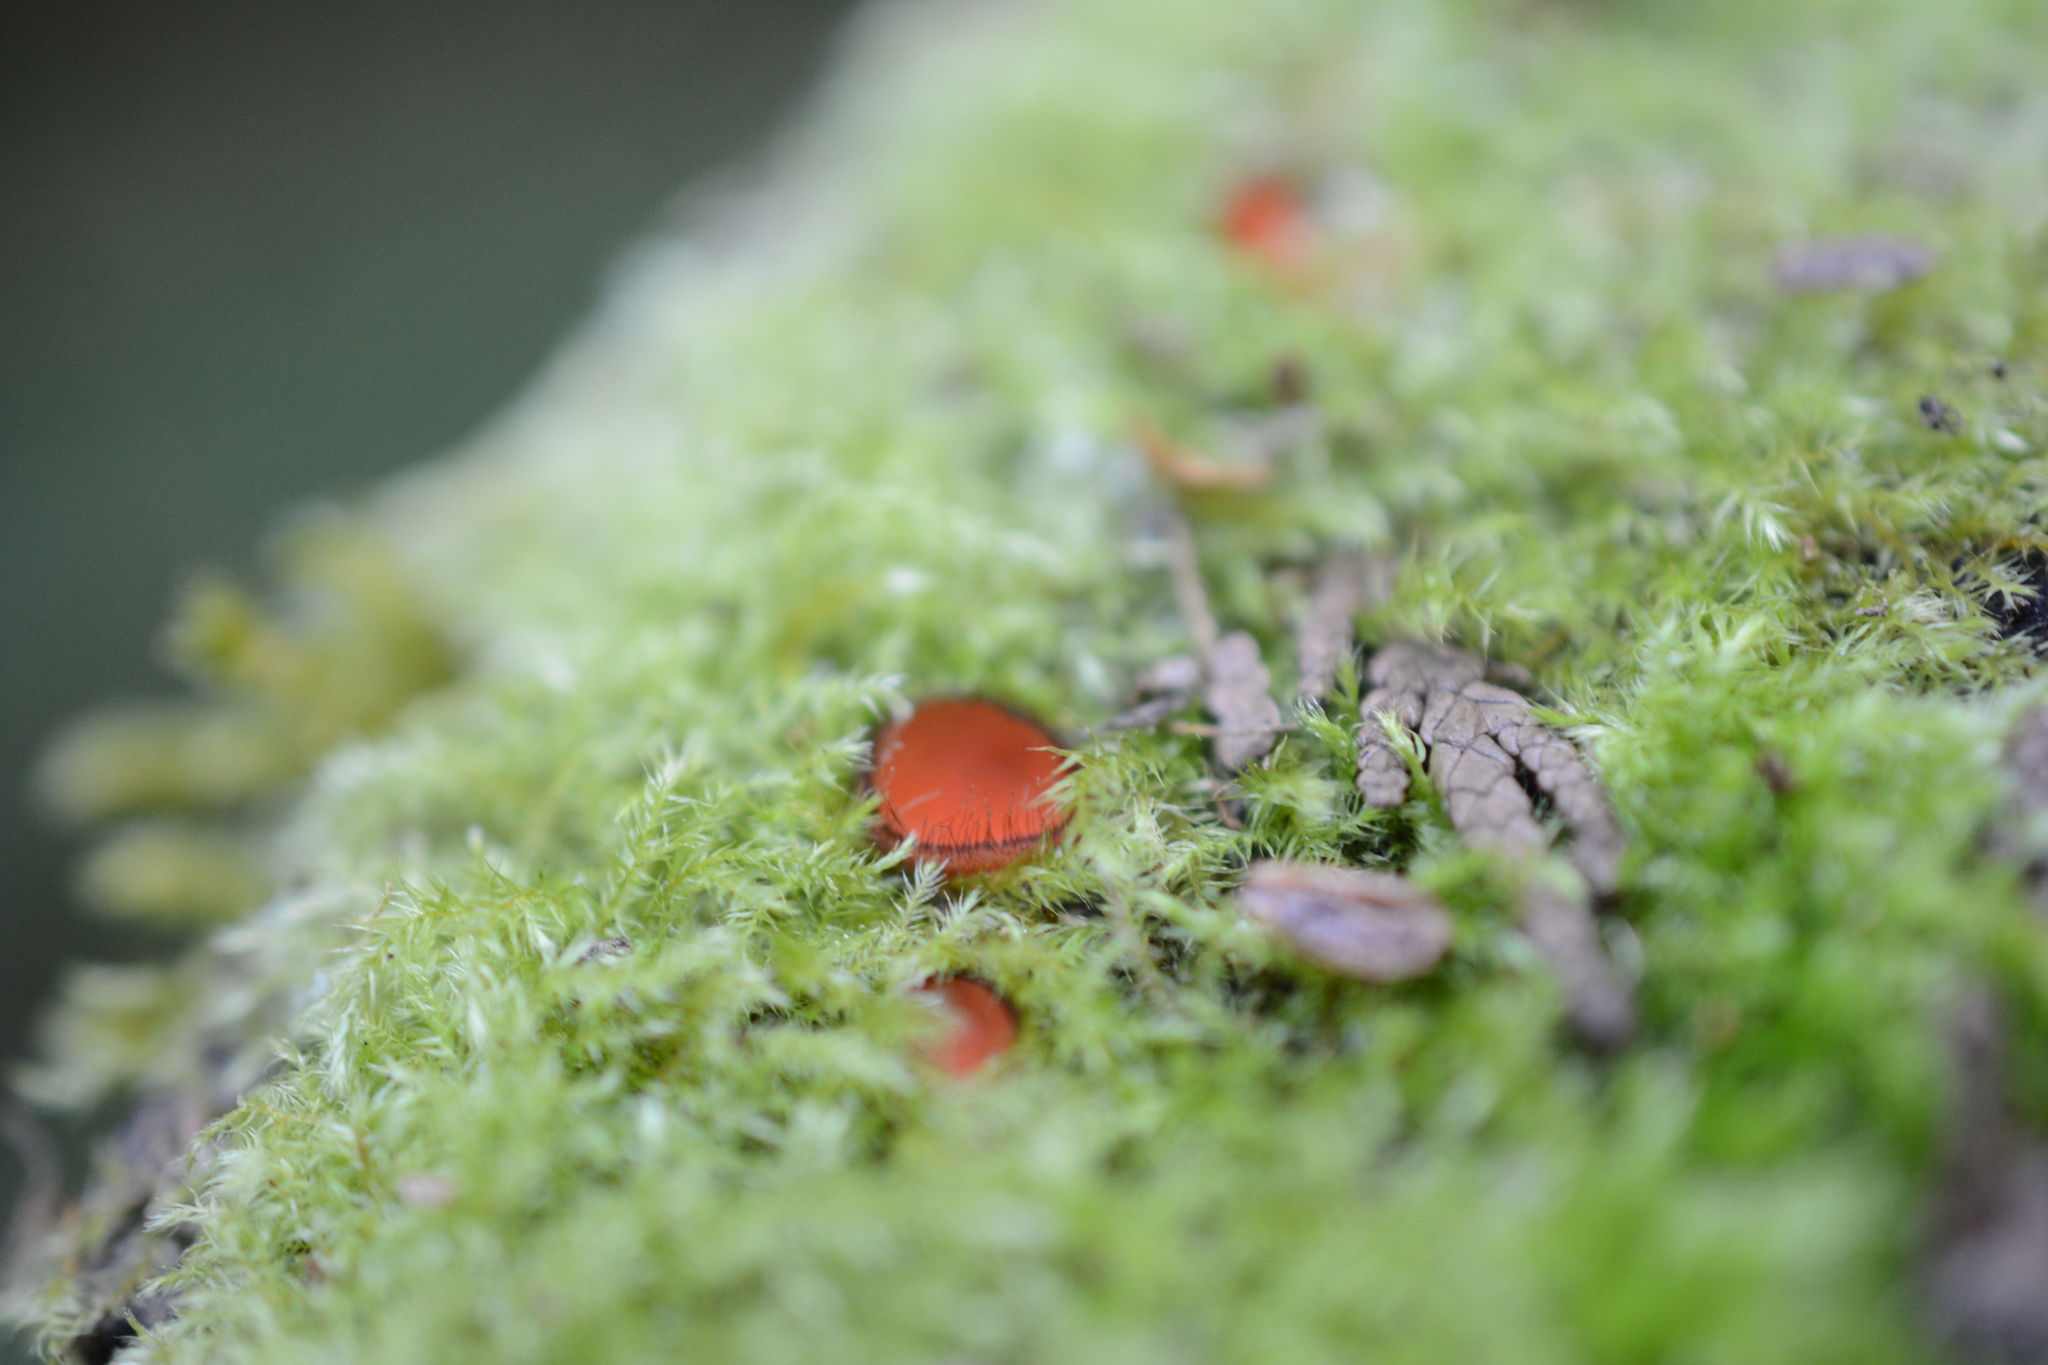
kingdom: Fungi
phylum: Ascomycota
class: Pezizomycetes
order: Pezizales
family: Pyronemataceae
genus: Scutellinia
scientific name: Scutellinia
